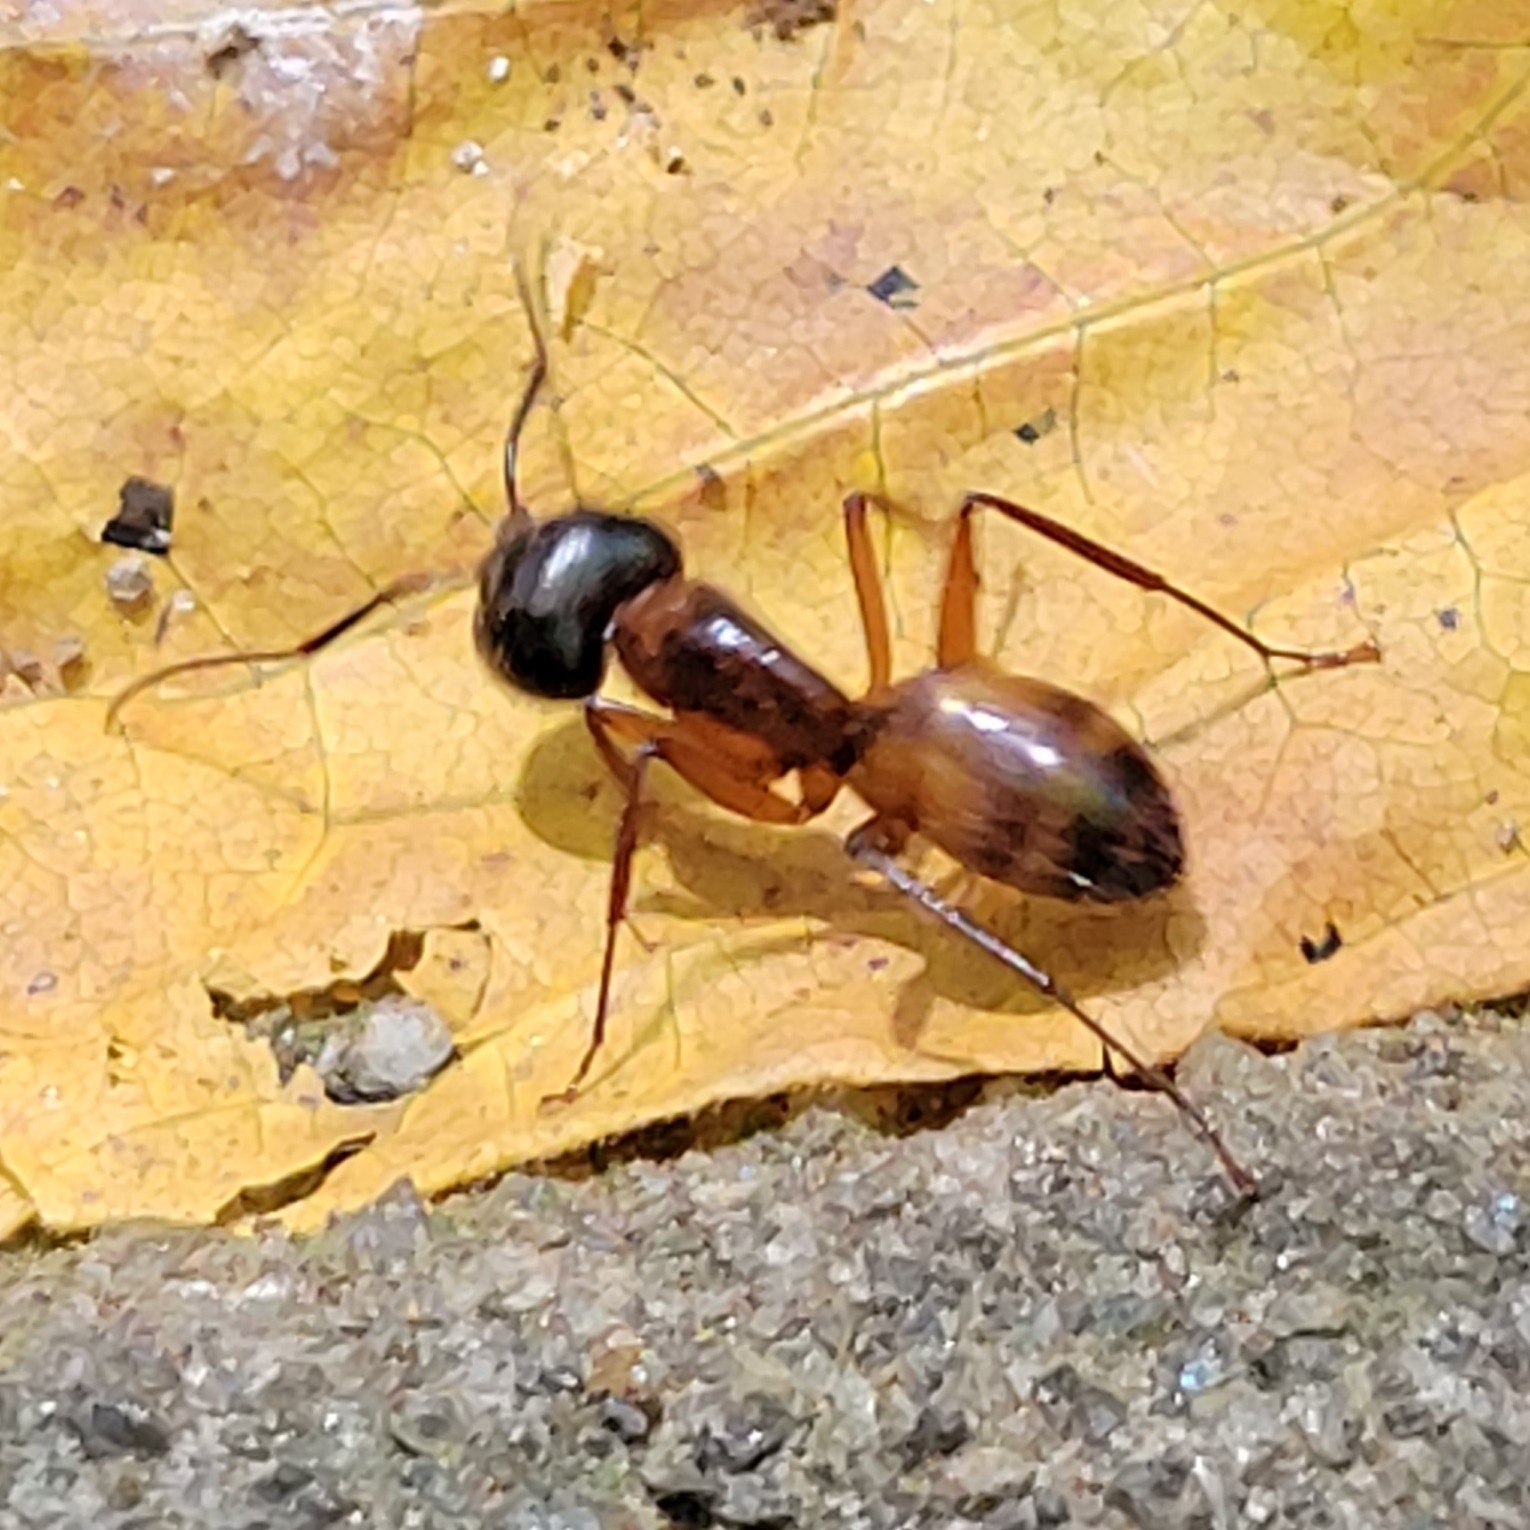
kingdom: Animalia
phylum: Arthropoda
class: Insecta
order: Hymenoptera
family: Formicidae
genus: Camponotus
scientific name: Camponotus americanus
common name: American carpenter ant
